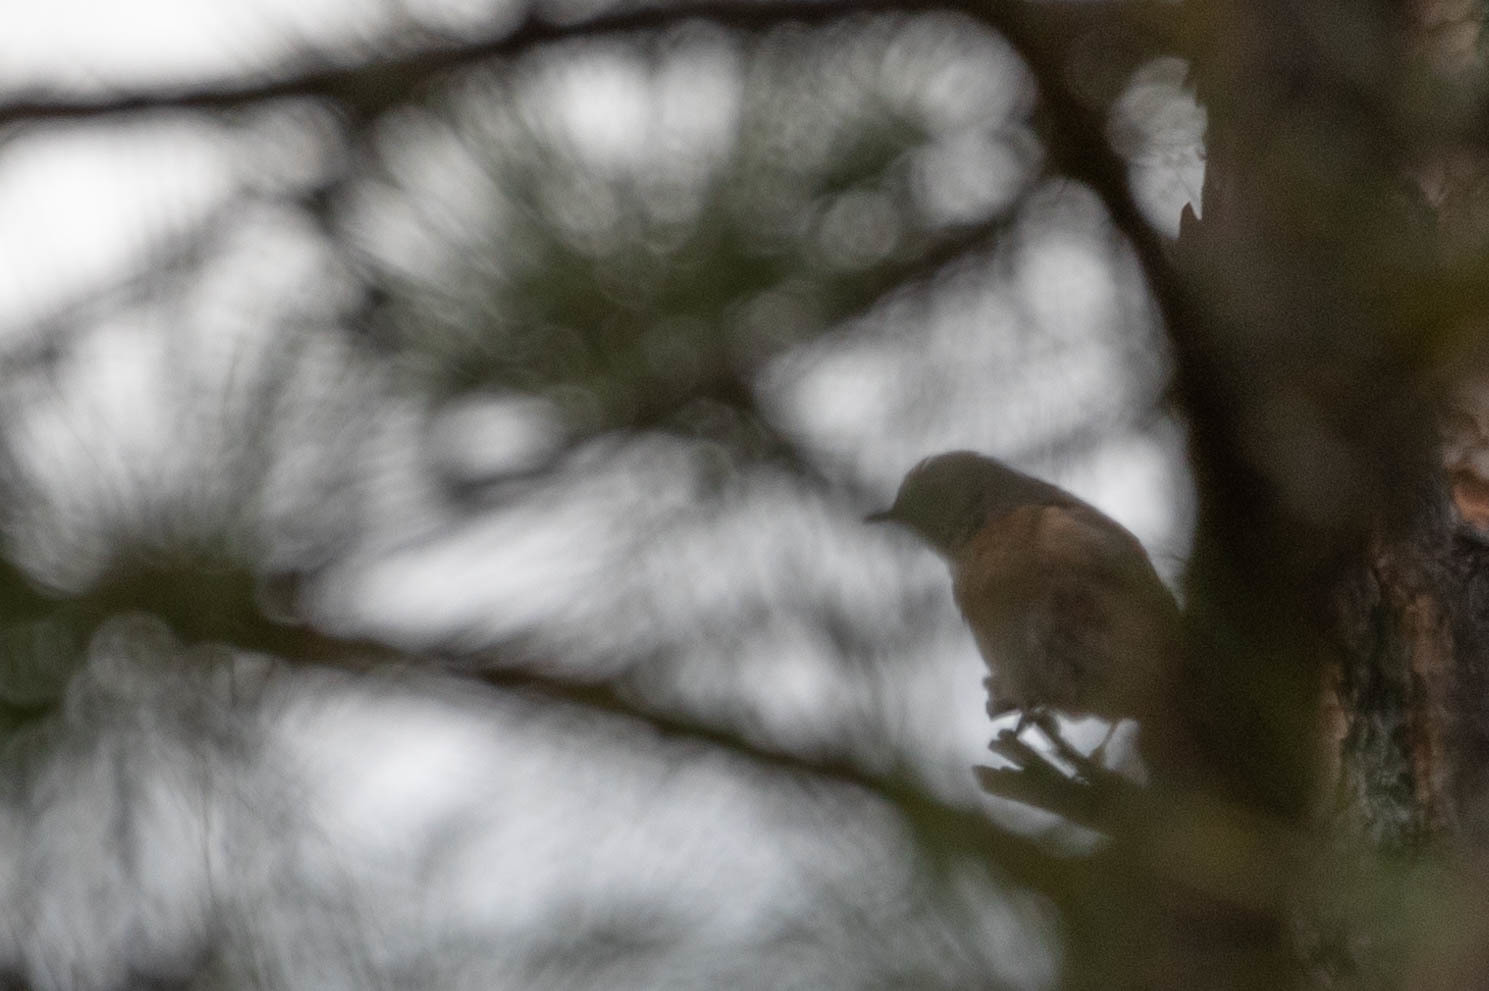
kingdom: Animalia
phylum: Chordata
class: Aves
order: Passeriformes
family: Turdidae
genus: Sialia
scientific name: Sialia mexicana
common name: Western bluebird
